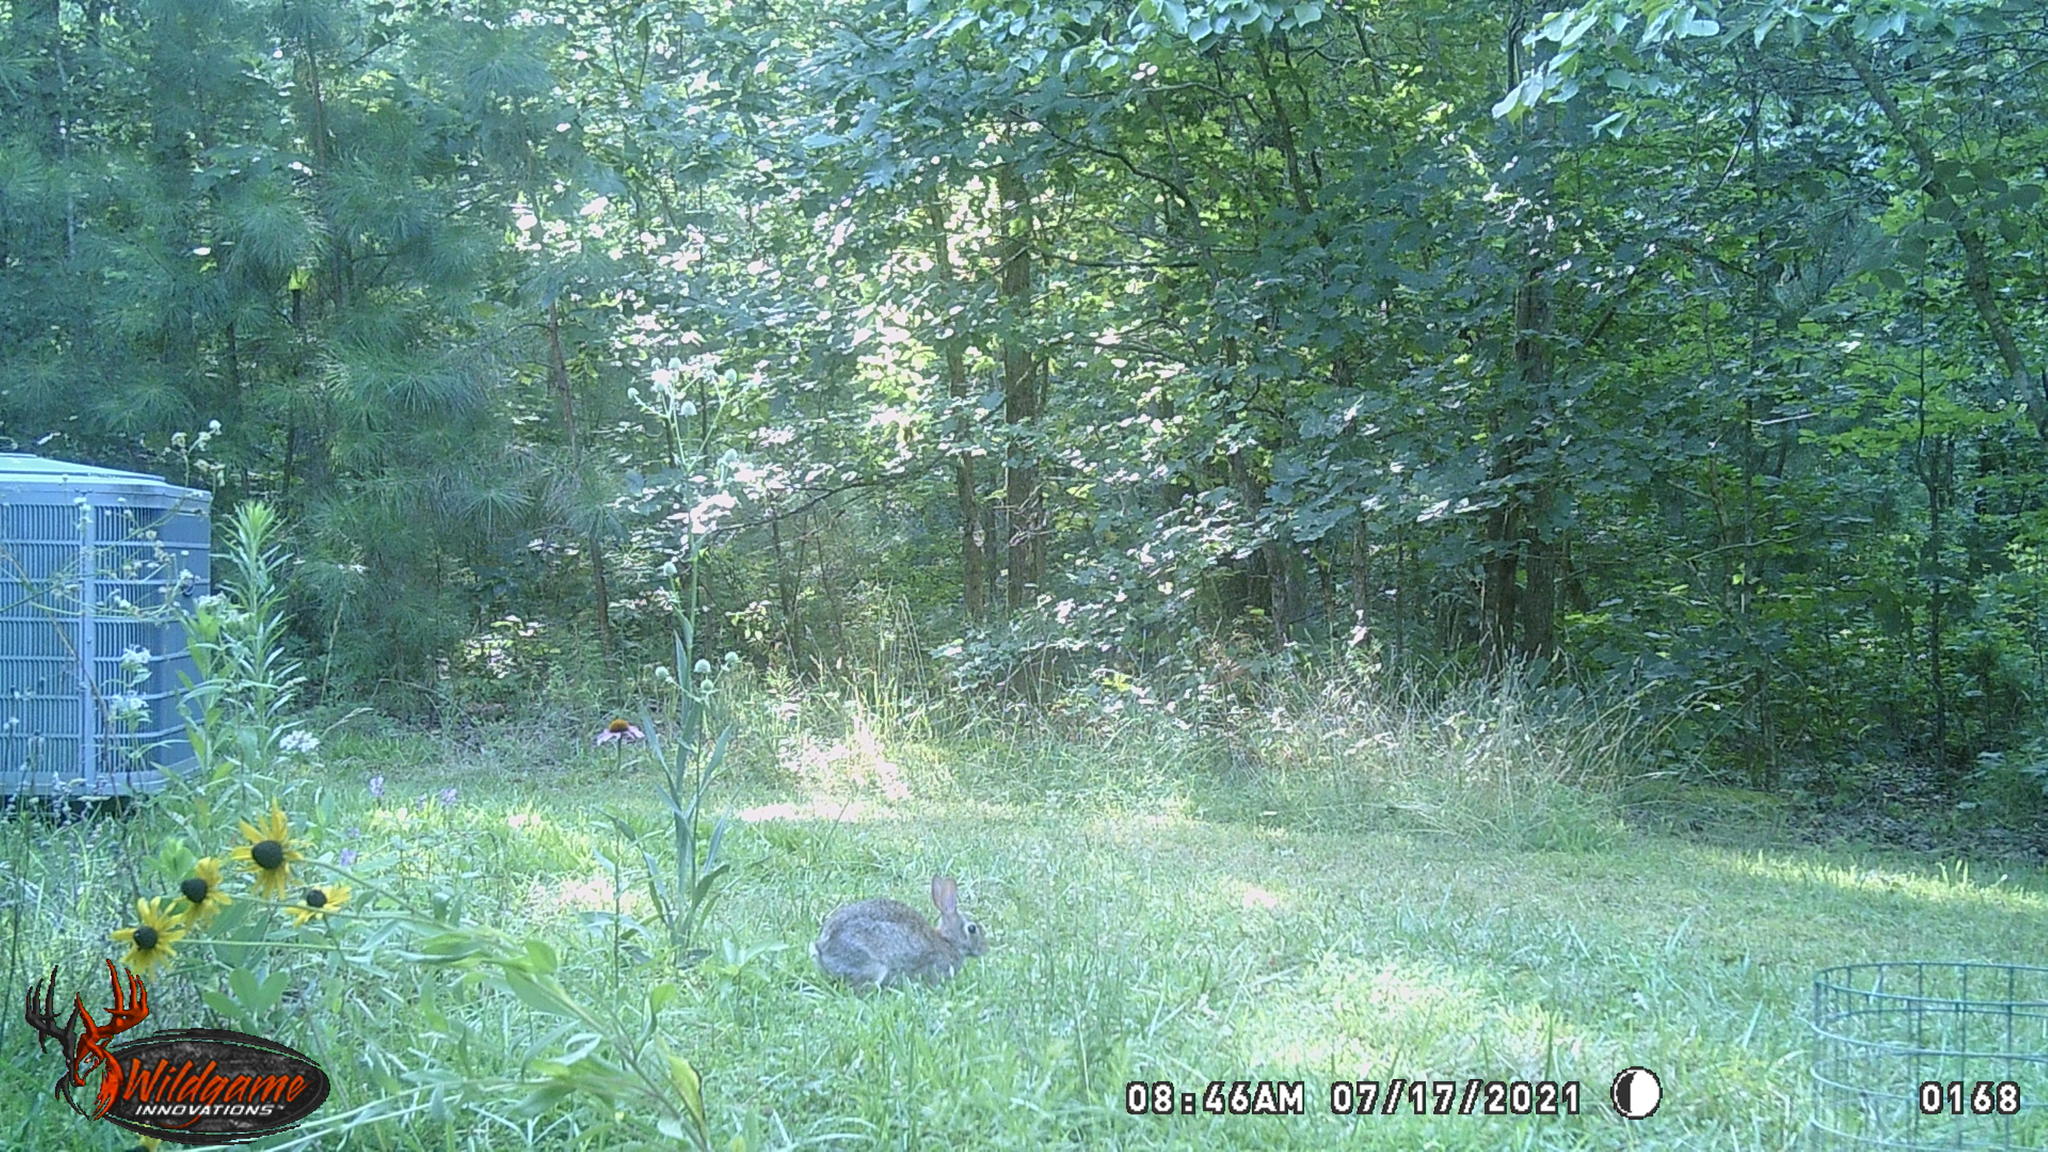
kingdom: Animalia
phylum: Chordata
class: Mammalia
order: Lagomorpha
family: Leporidae
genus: Sylvilagus
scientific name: Sylvilagus floridanus
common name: Eastern cottontail
